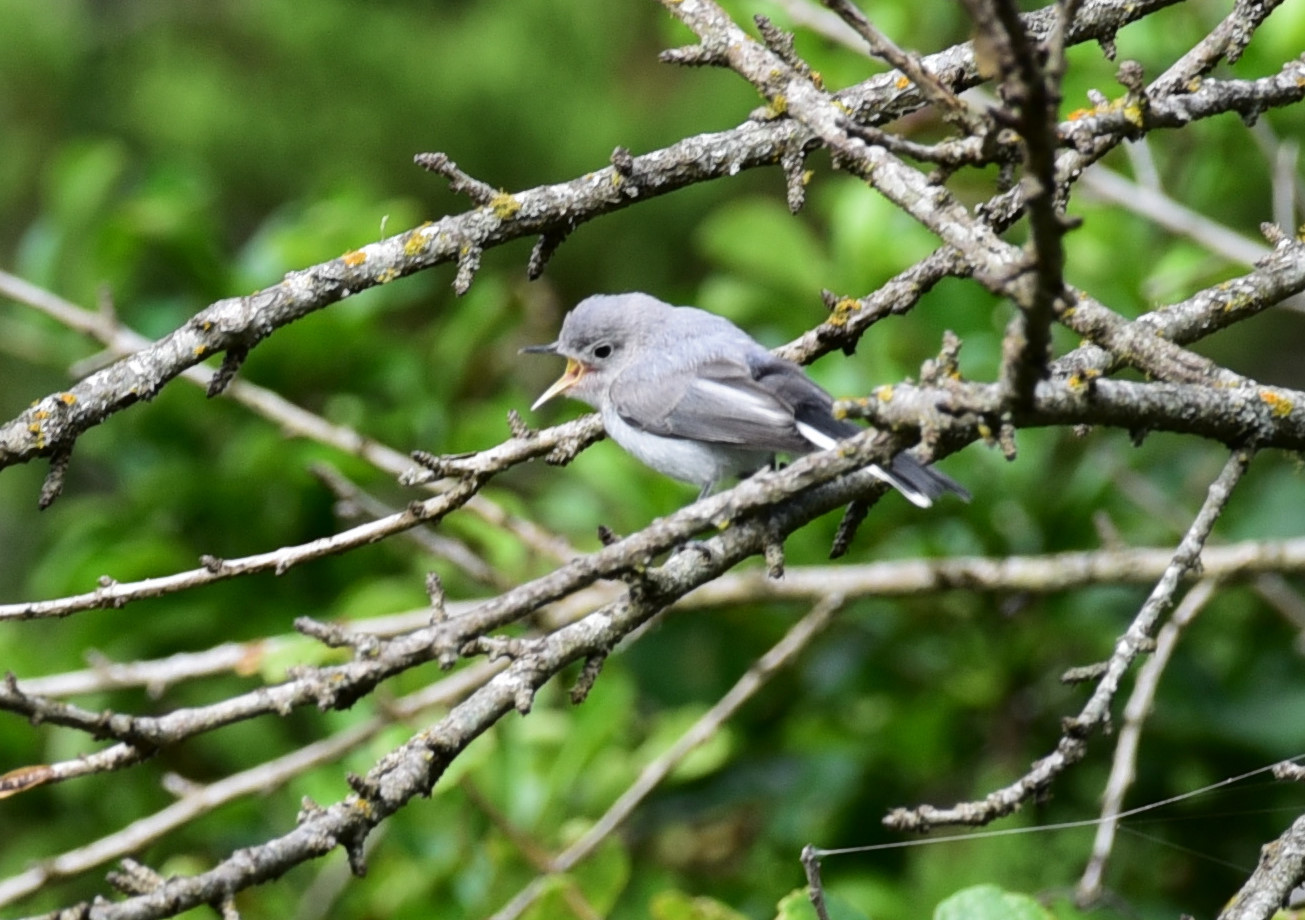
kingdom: Animalia
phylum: Chordata
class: Aves
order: Passeriformes
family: Polioptilidae
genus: Polioptila
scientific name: Polioptila caerulea
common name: Blue-gray gnatcatcher
